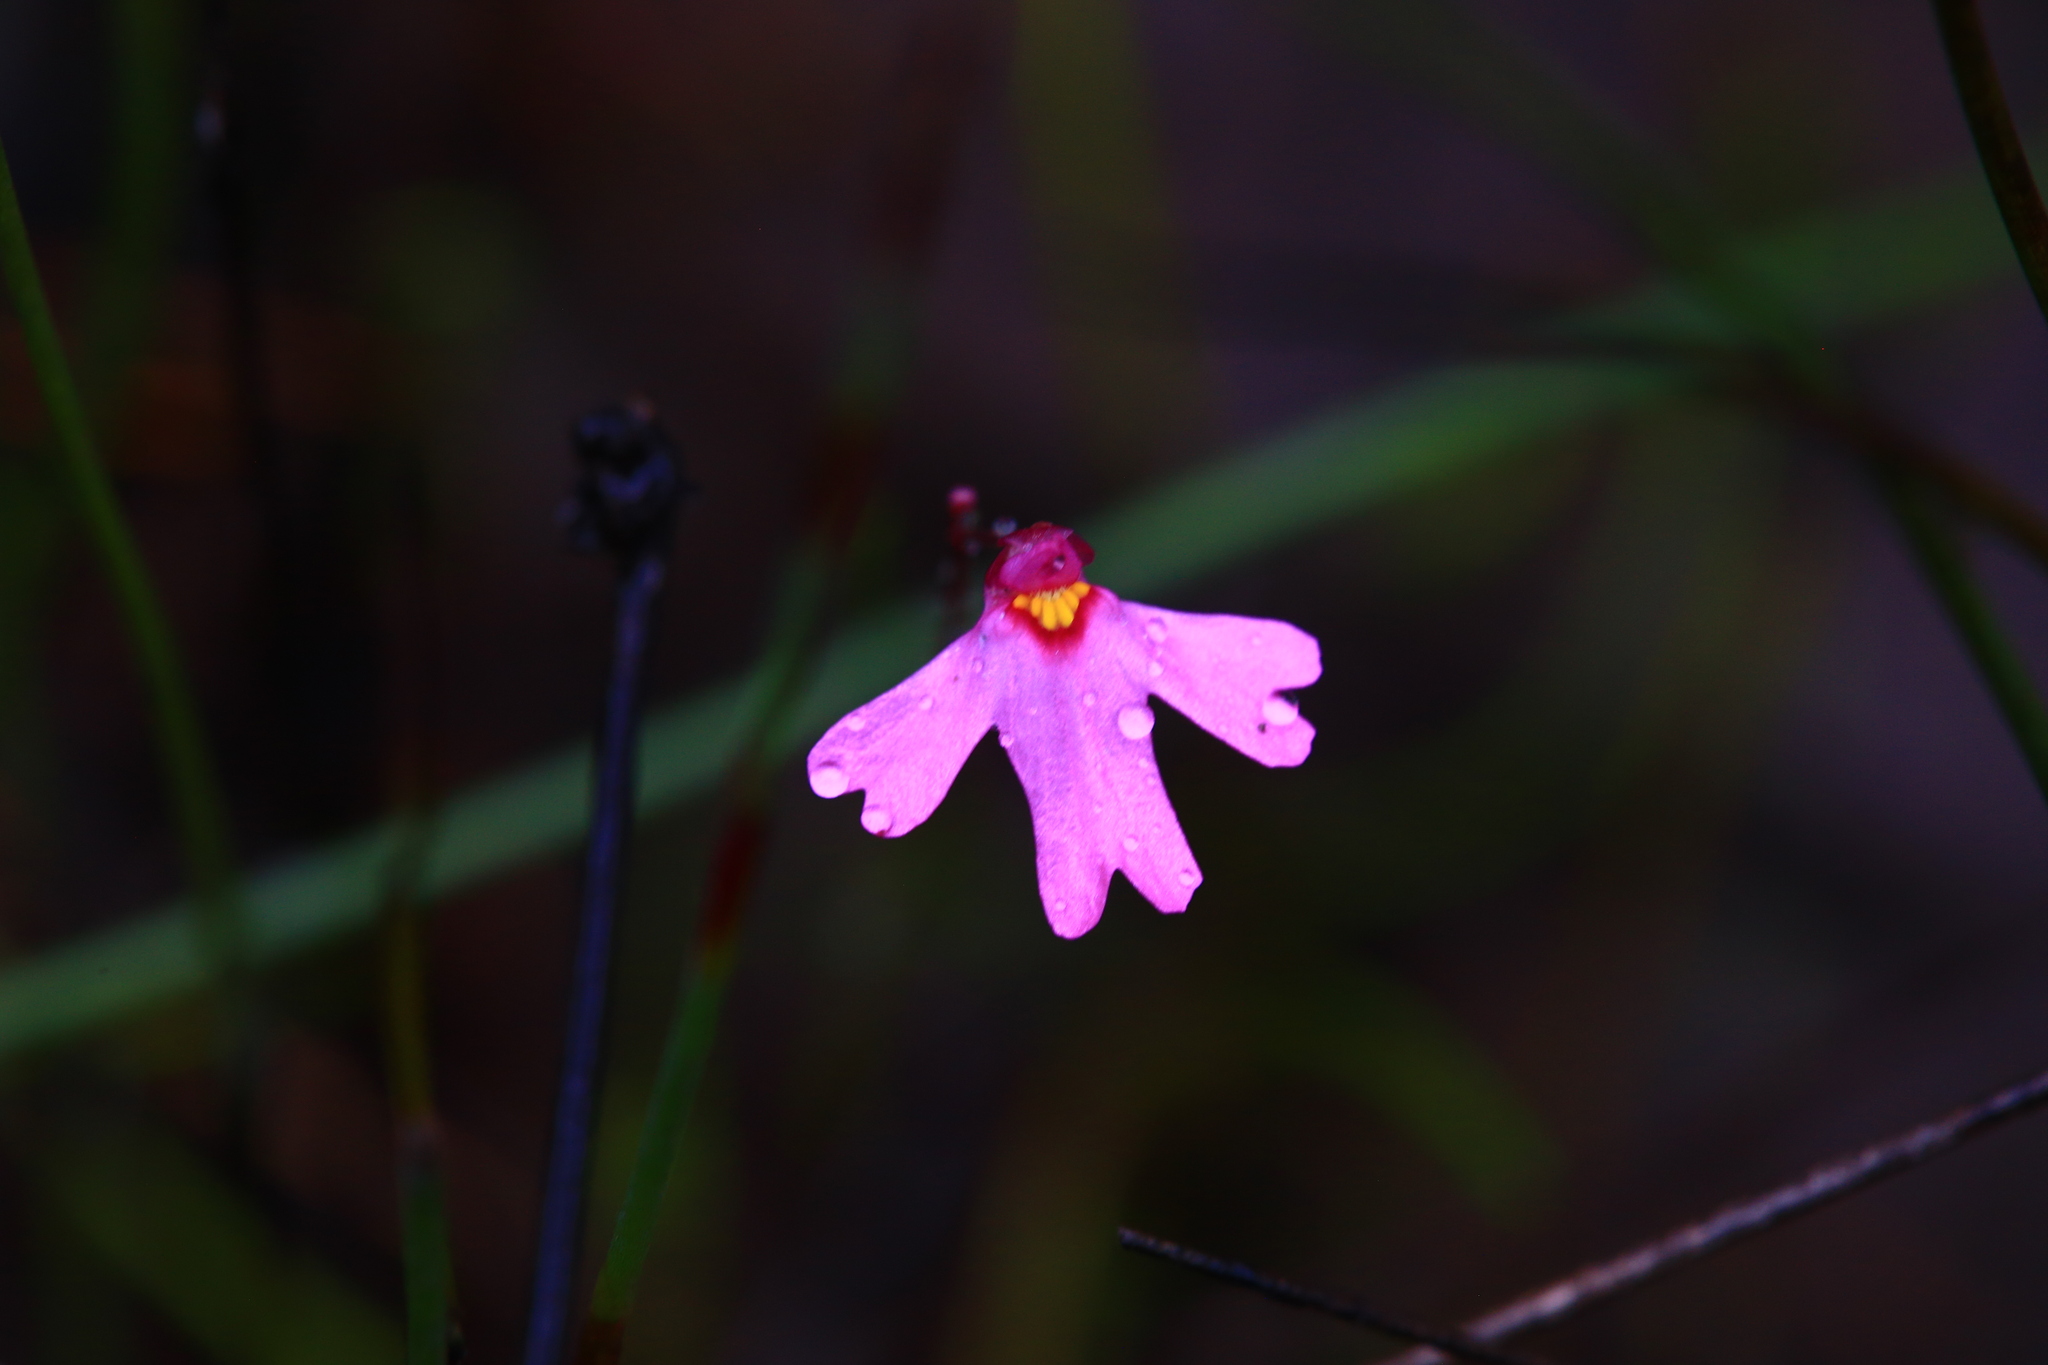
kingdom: Plantae
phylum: Tracheophyta
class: Magnoliopsida
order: Lamiales
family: Lentibulariaceae
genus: Utricularia
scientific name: Utricularia multifida
